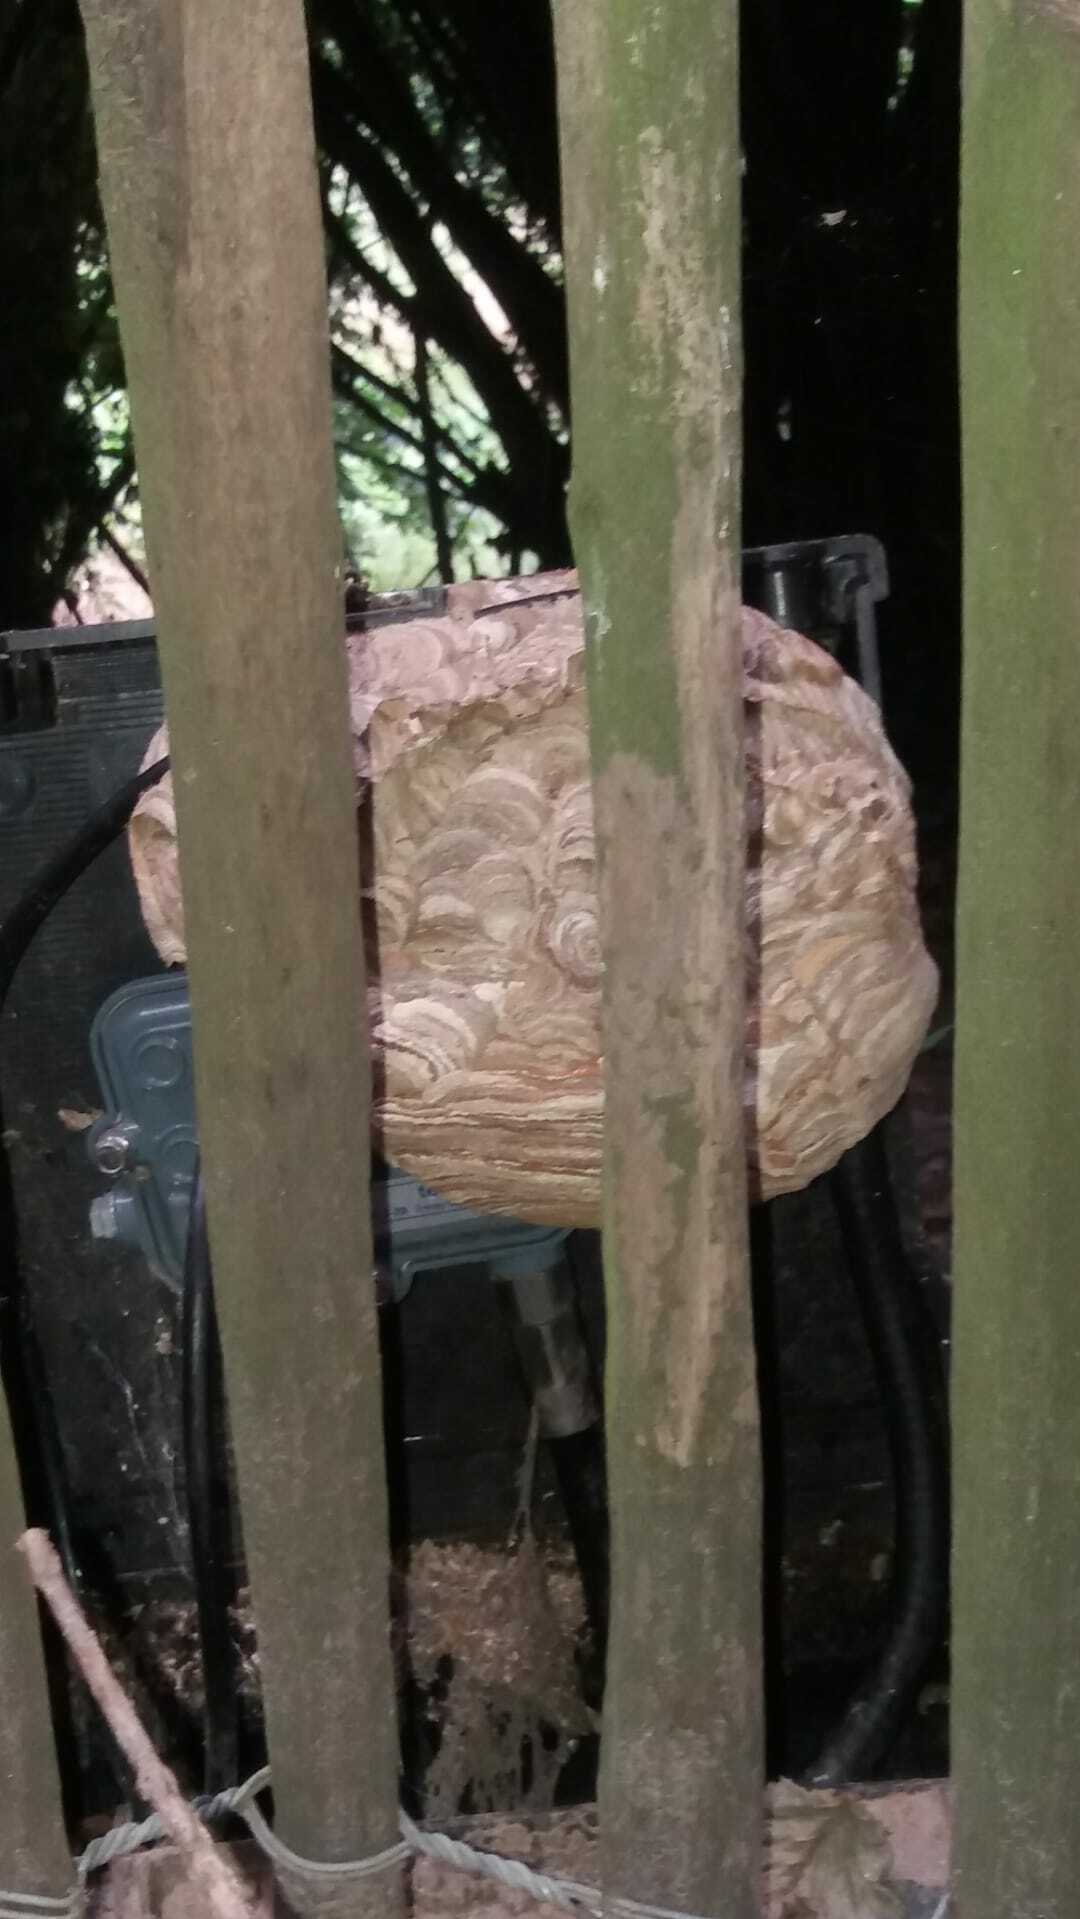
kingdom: Animalia
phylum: Arthropoda
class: Insecta
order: Hymenoptera
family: Vespidae
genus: Vespa
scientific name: Vespa velutina
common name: Asian hornet
